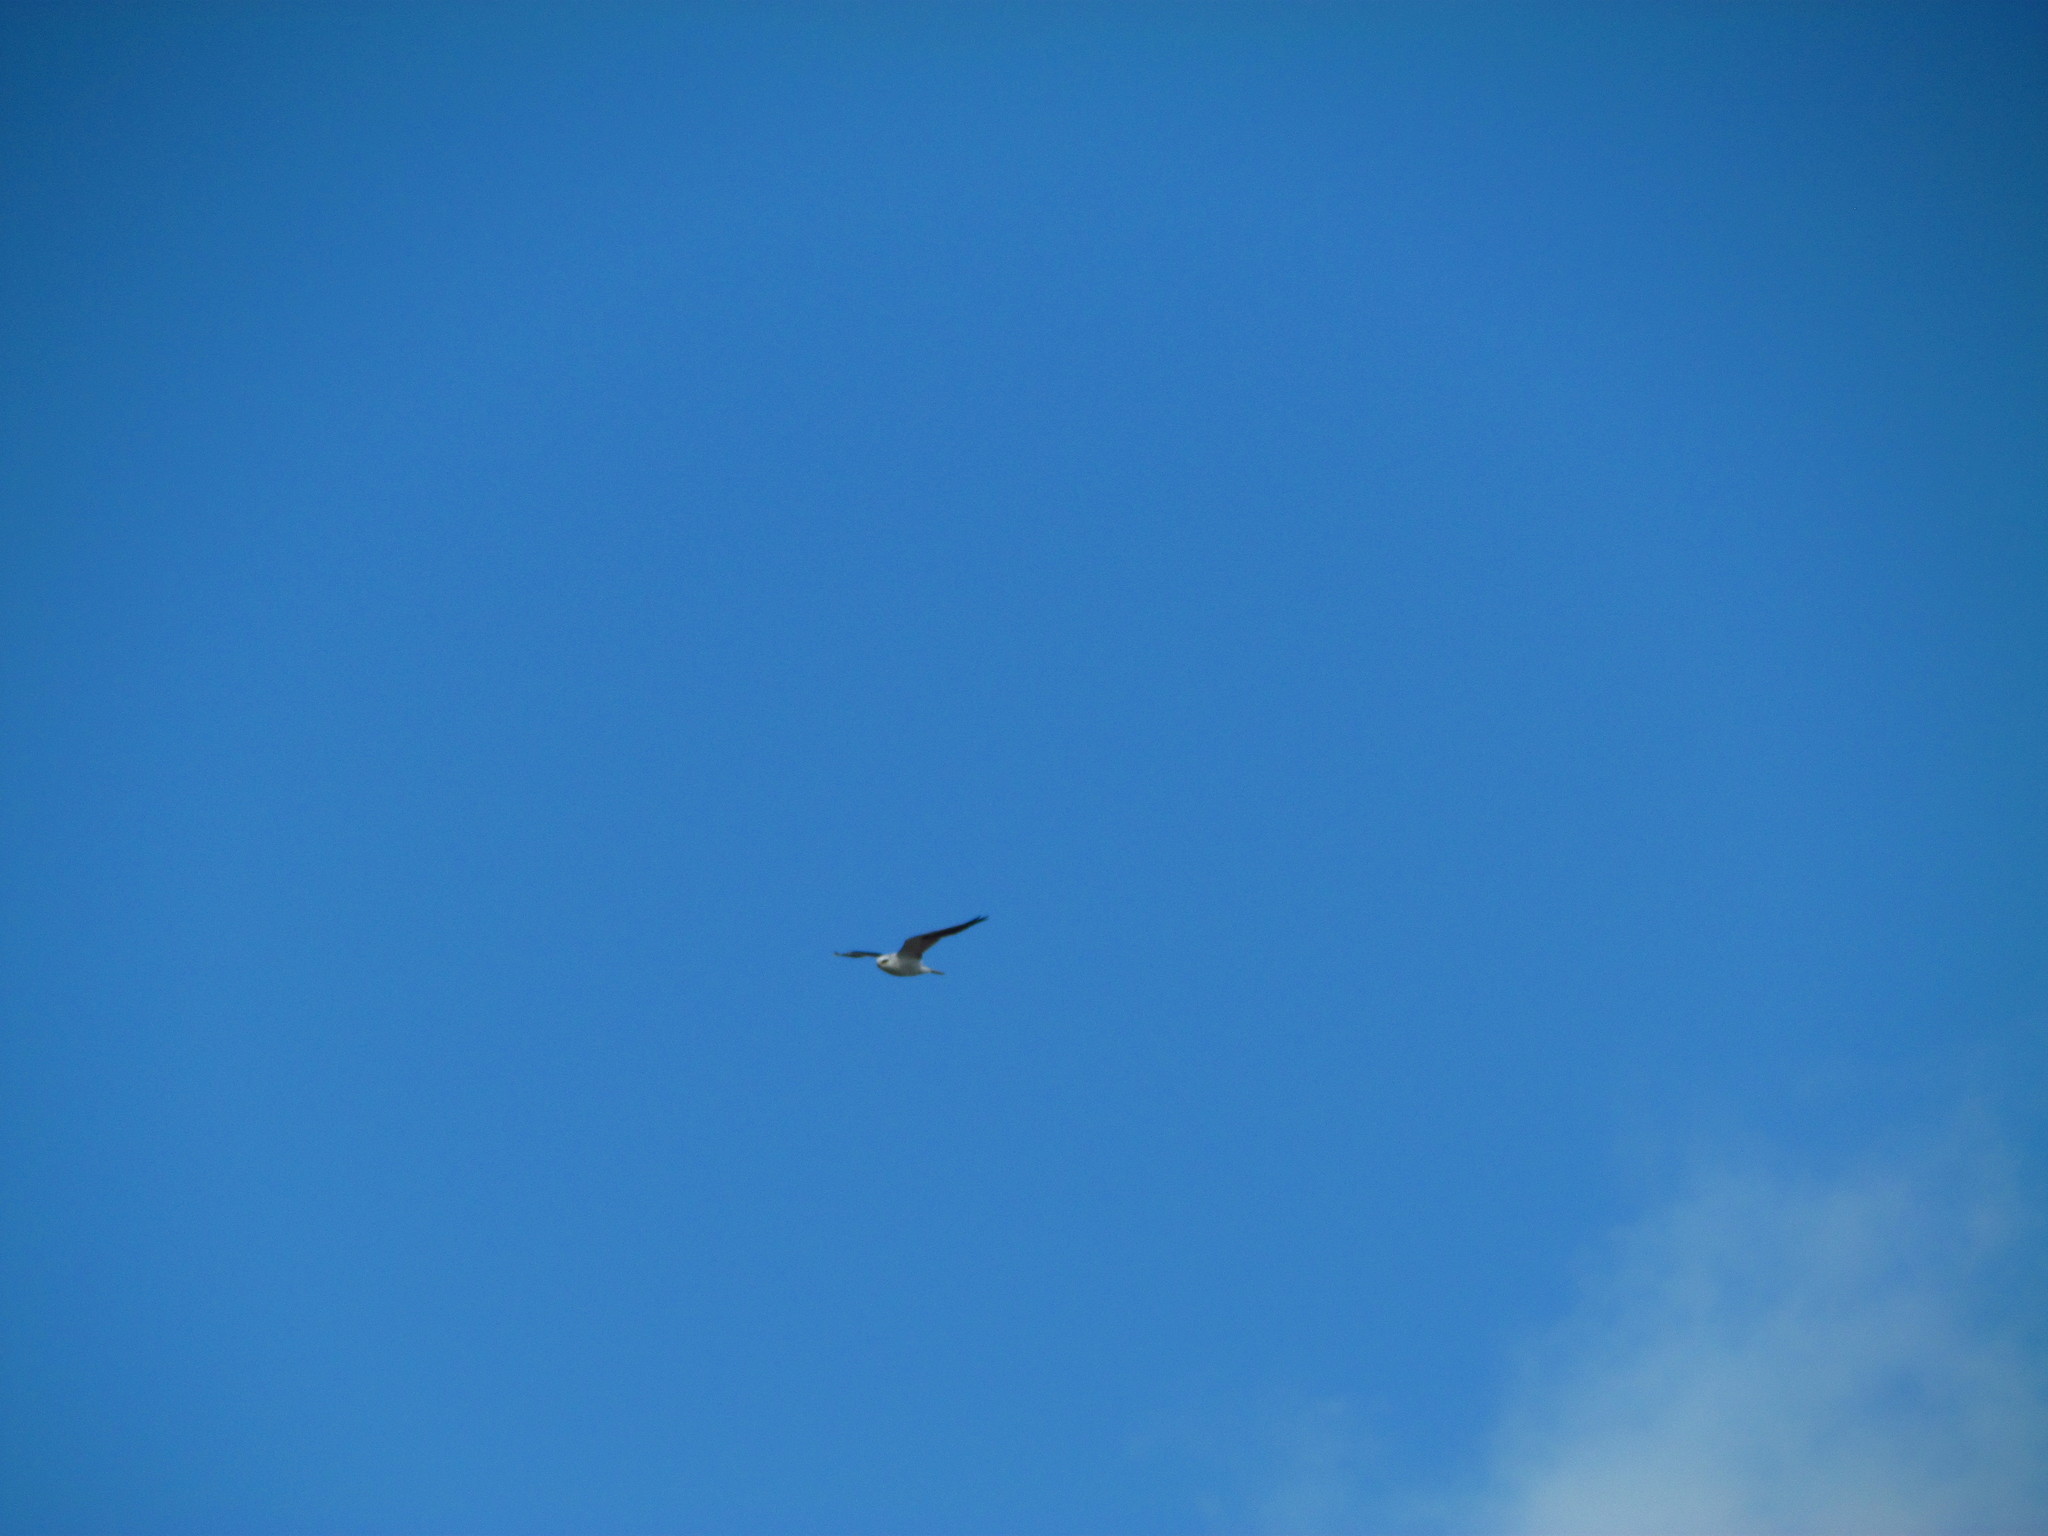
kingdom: Animalia
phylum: Chordata
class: Aves
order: Accipitriformes
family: Accipitridae
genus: Elanus
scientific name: Elanus leucurus
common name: White-tailed kite
